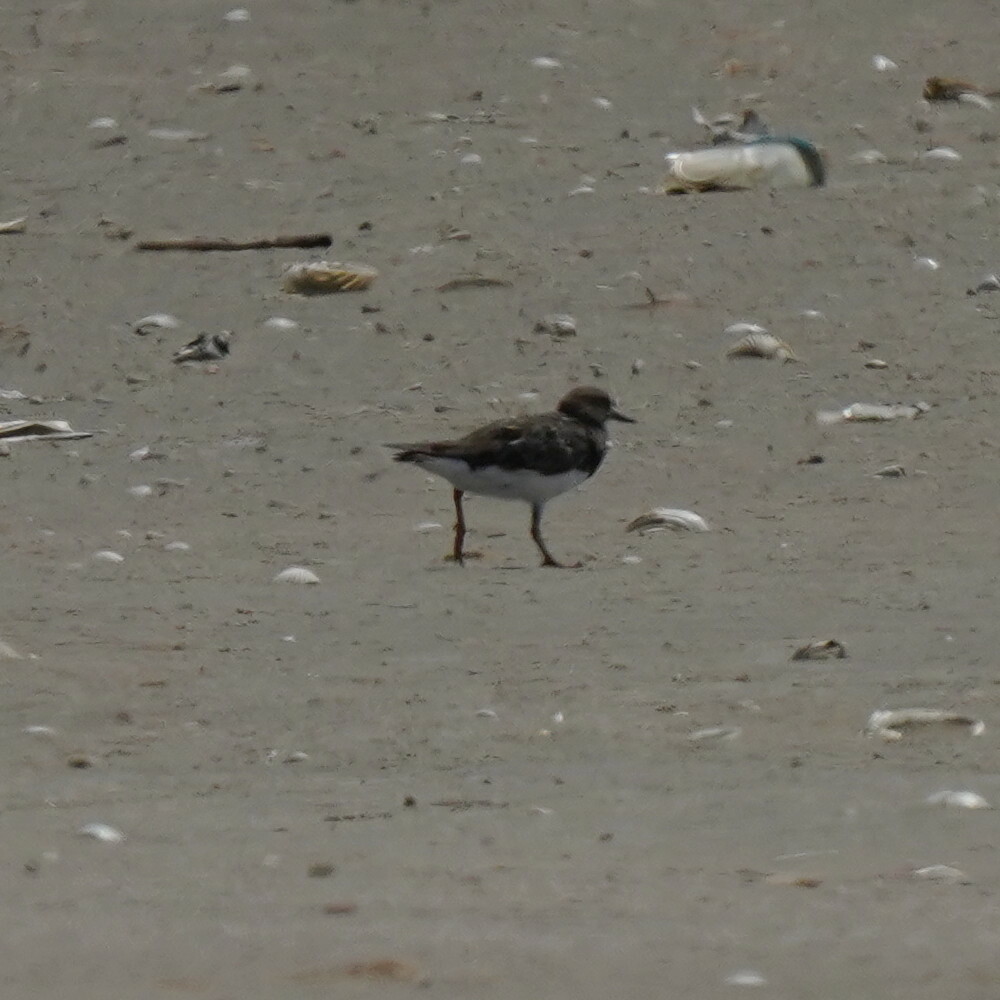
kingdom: Animalia
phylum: Chordata
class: Aves
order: Charadriiformes
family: Scolopacidae
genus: Arenaria
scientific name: Arenaria interpres
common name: Ruddy turnstone
